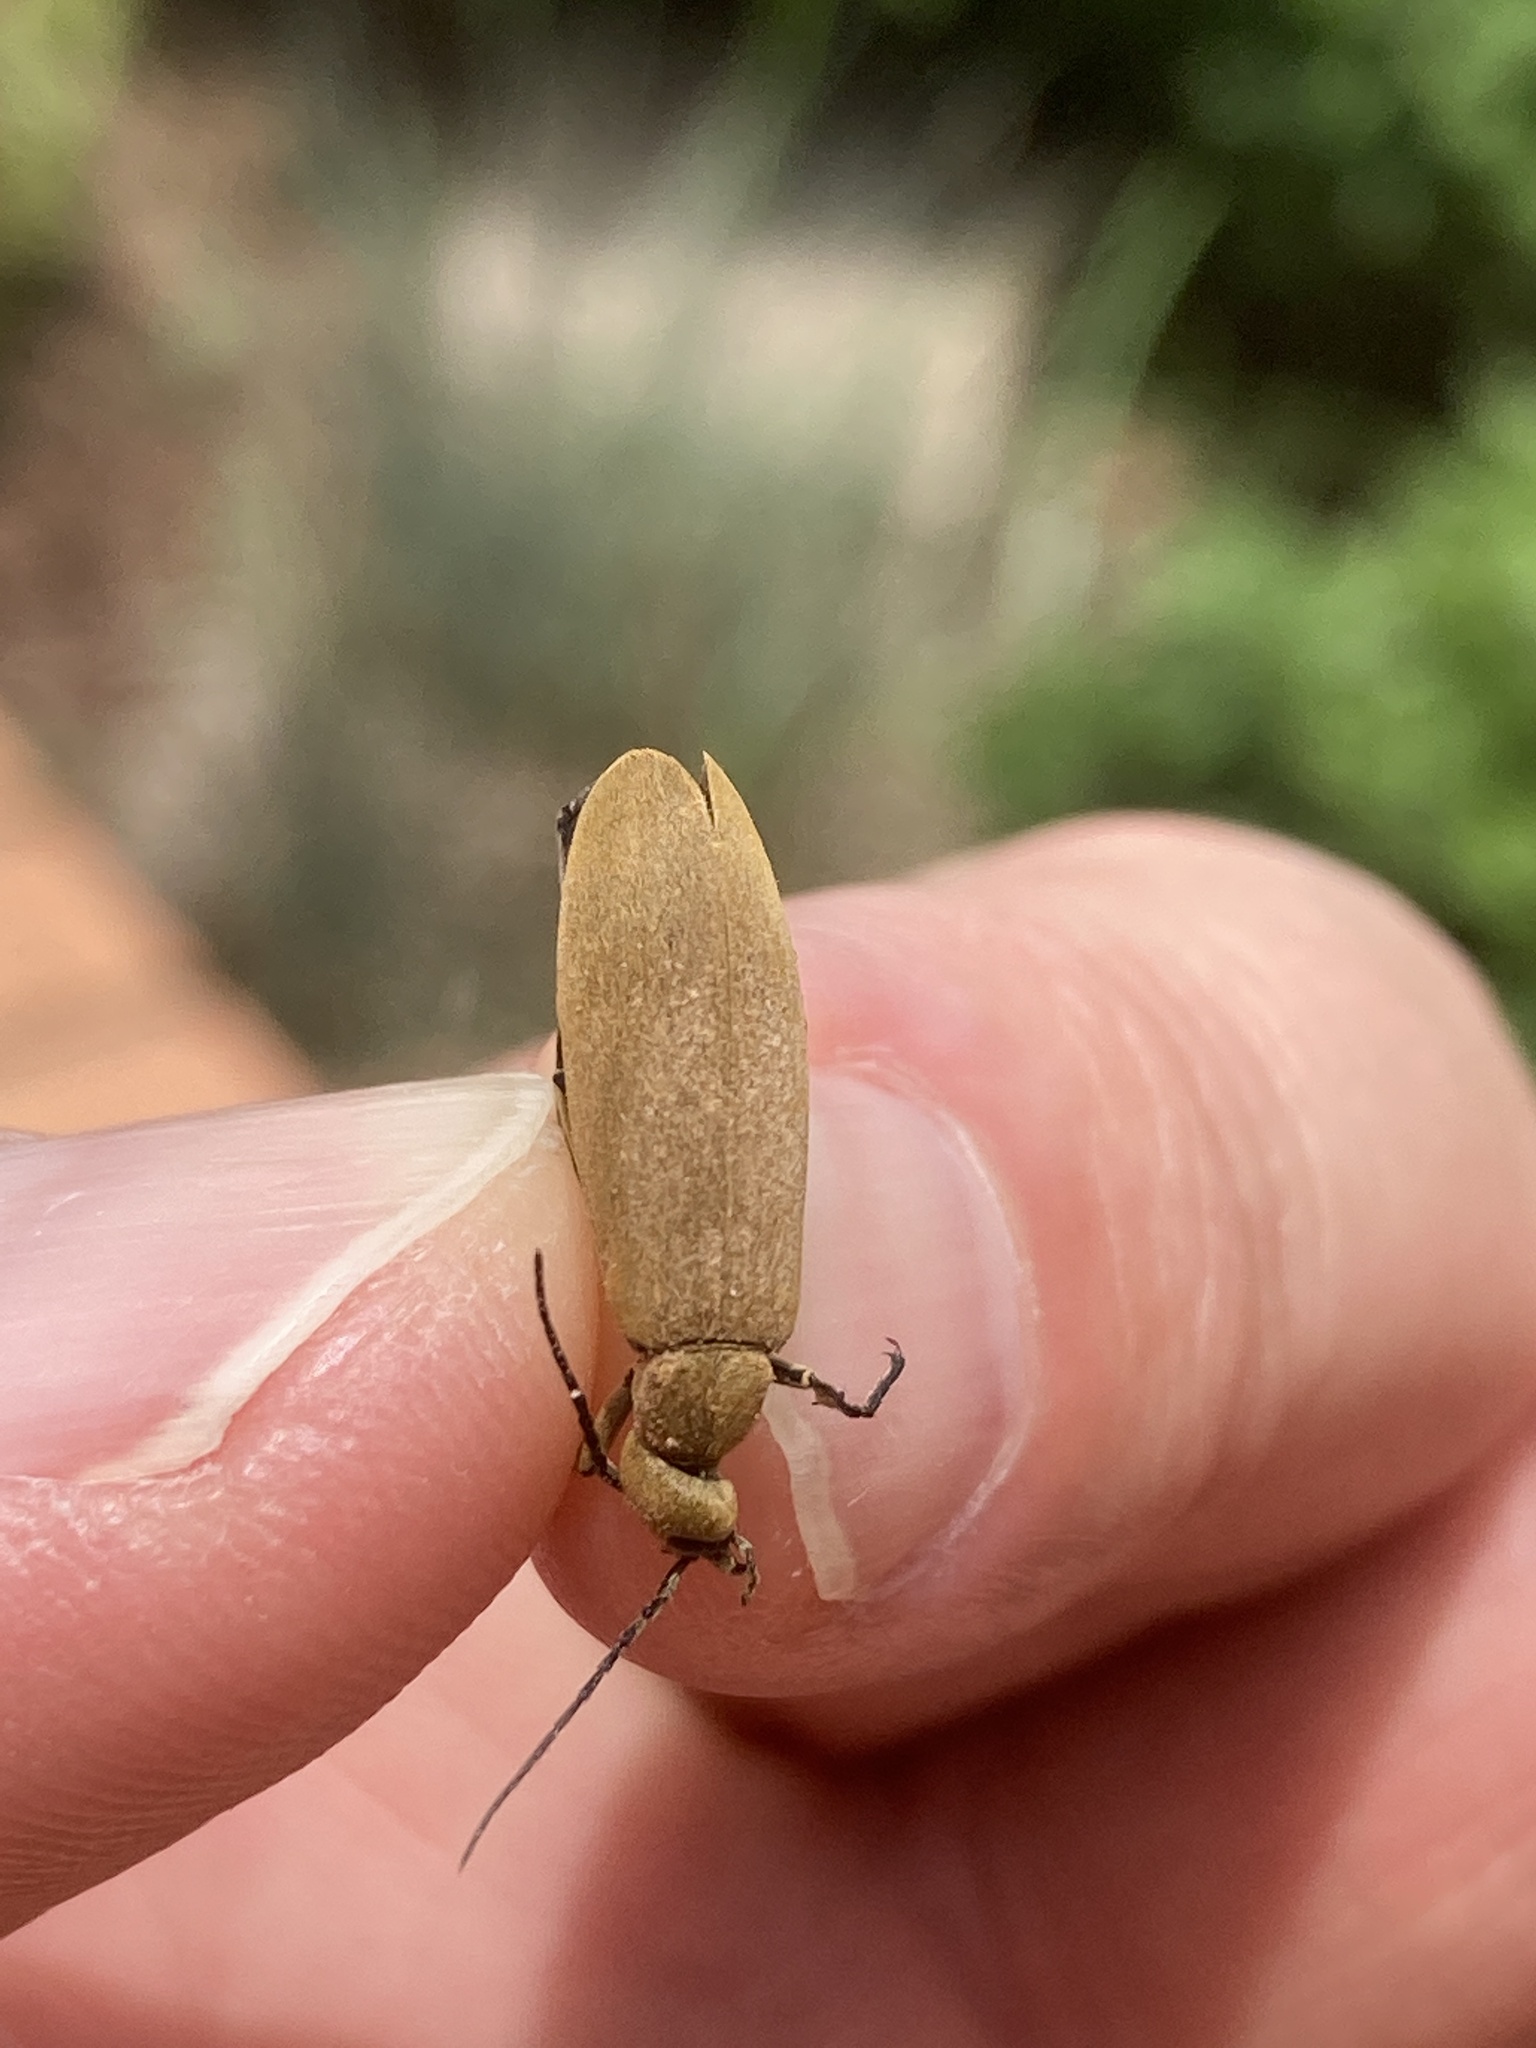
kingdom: Animalia
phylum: Arthropoda
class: Insecta
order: Coleoptera
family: Meloidae
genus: Epicauta
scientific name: Epicauta immaculata
